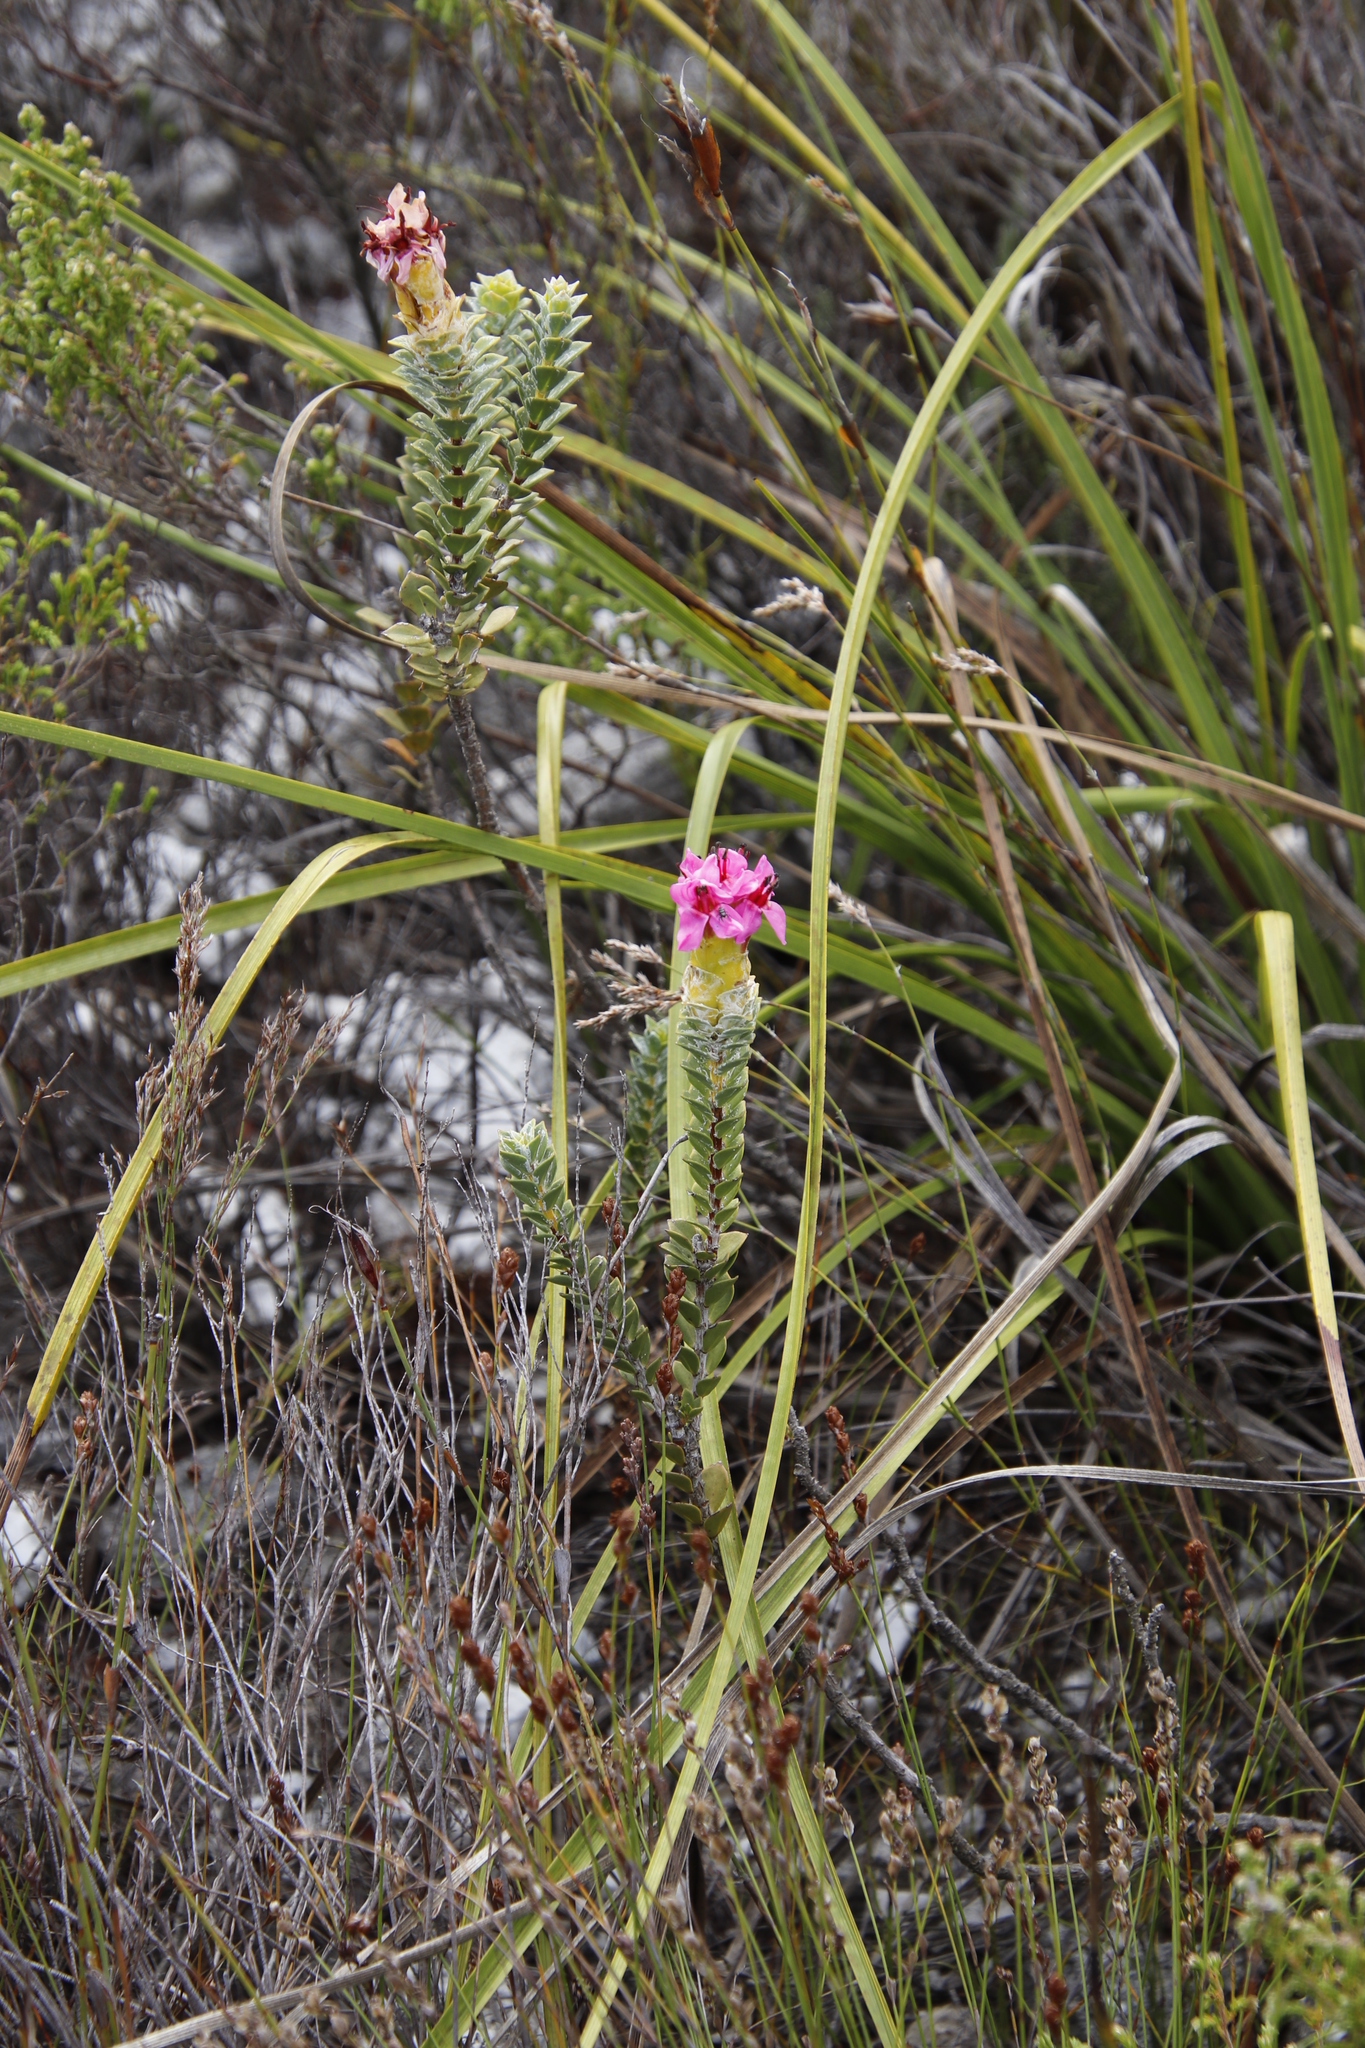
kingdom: Plantae
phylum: Tracheophyta
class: Magnoliopsida
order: Myrtales
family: Penaeaceae
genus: Saltera
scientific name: Saltera sarcocolla
